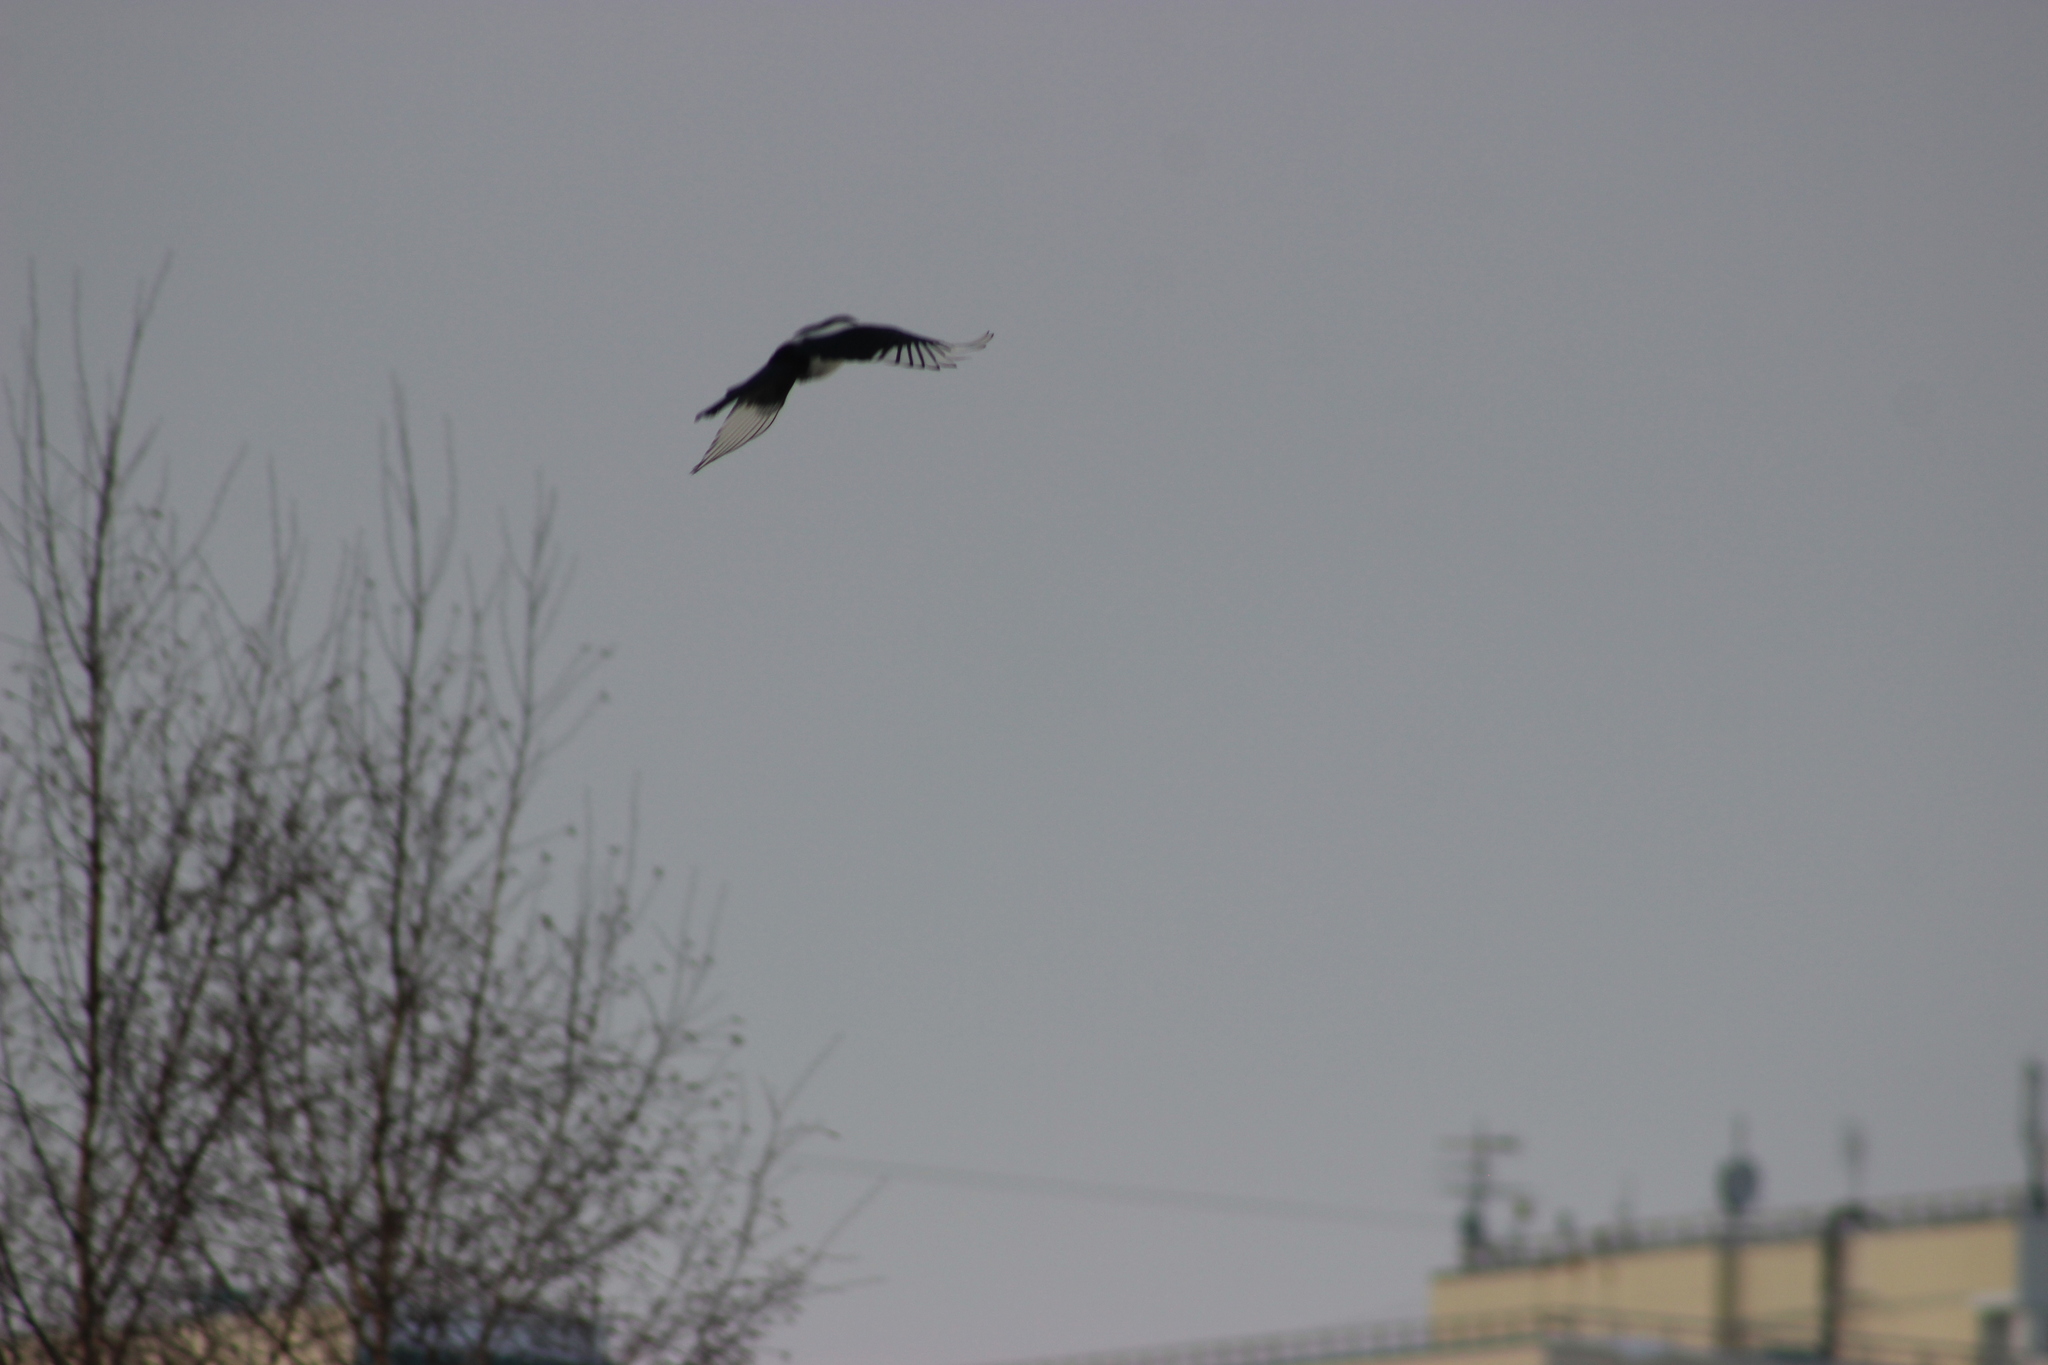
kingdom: Animalia
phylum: Chordata
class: Aves
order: Passeriformes
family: Corvidae
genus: Pica
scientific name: Pica pica
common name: Eurasian magpie
